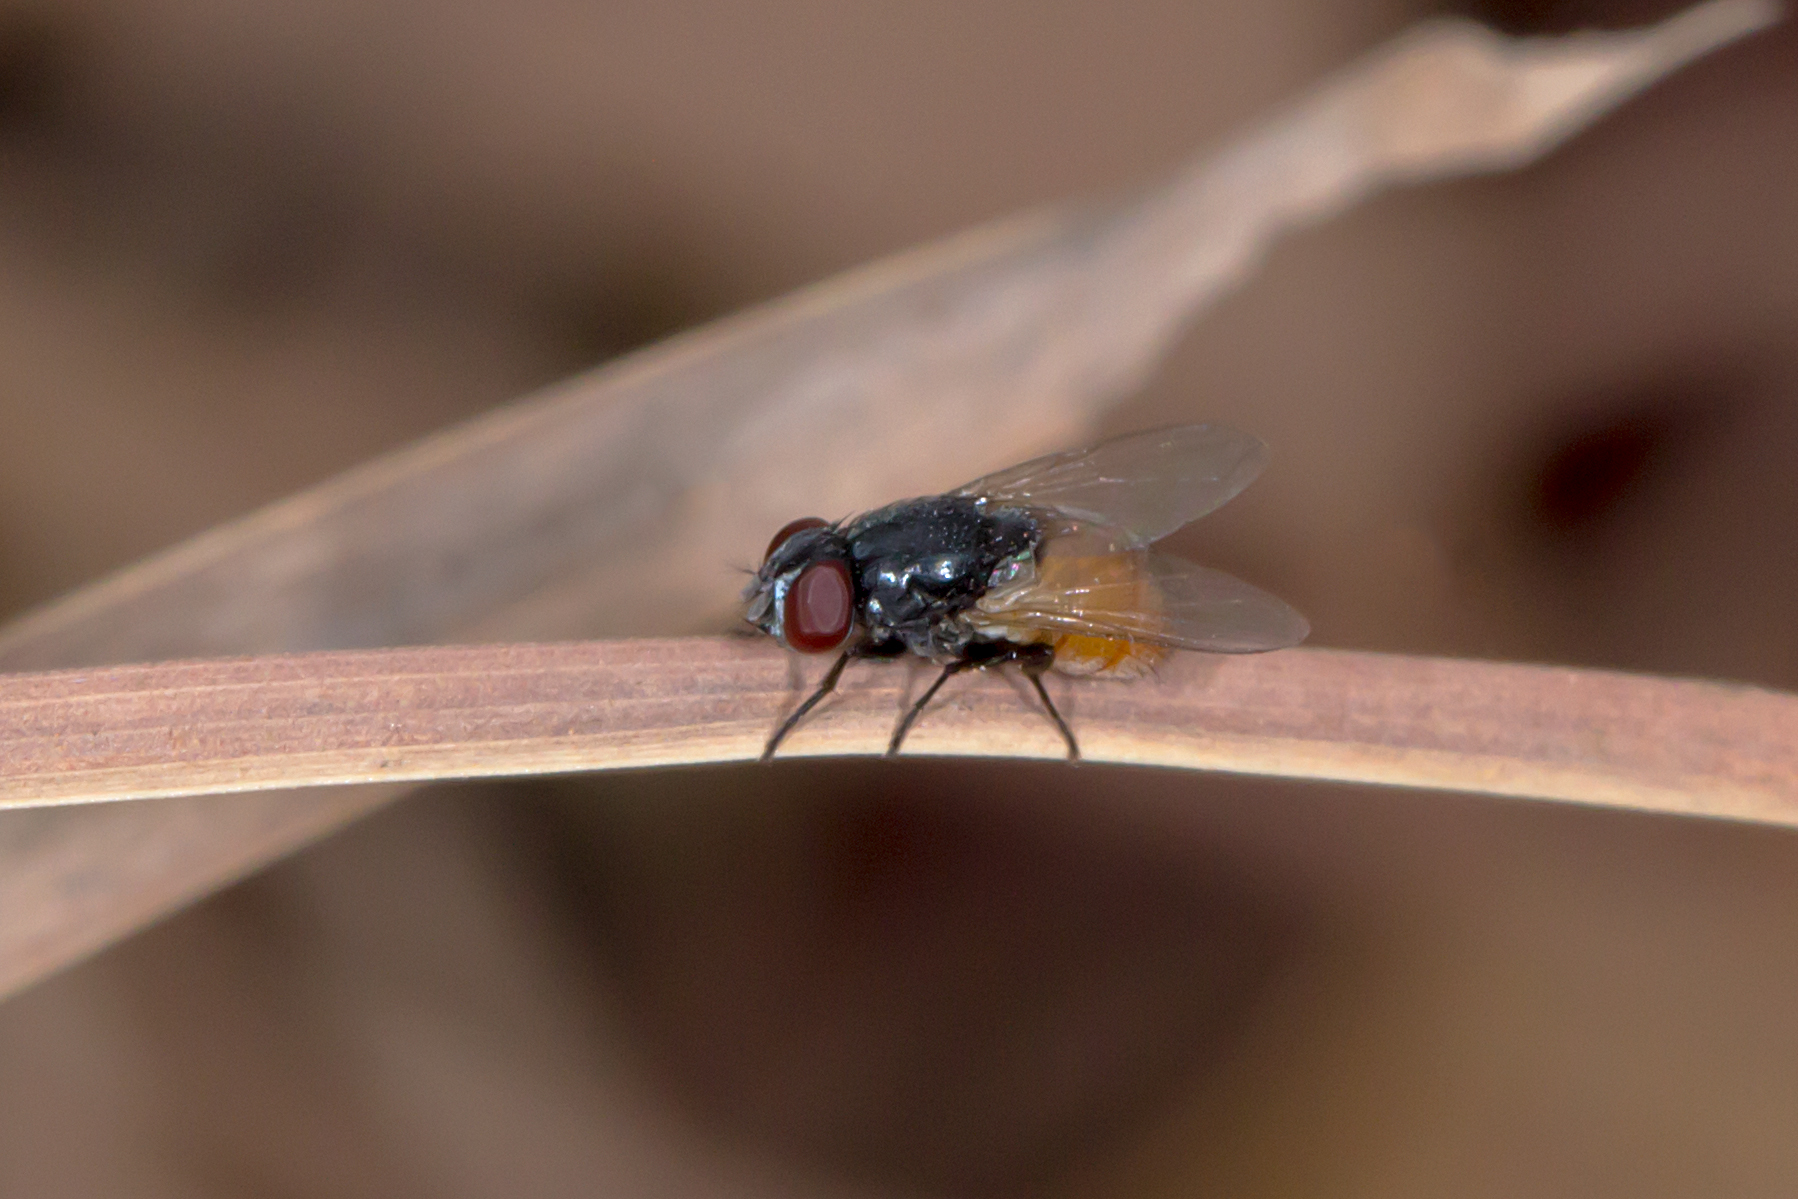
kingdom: Animalia
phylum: Arthropoda
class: Insecta
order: Diptera
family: Muscidae
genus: Musca
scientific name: Musca ventrosa
